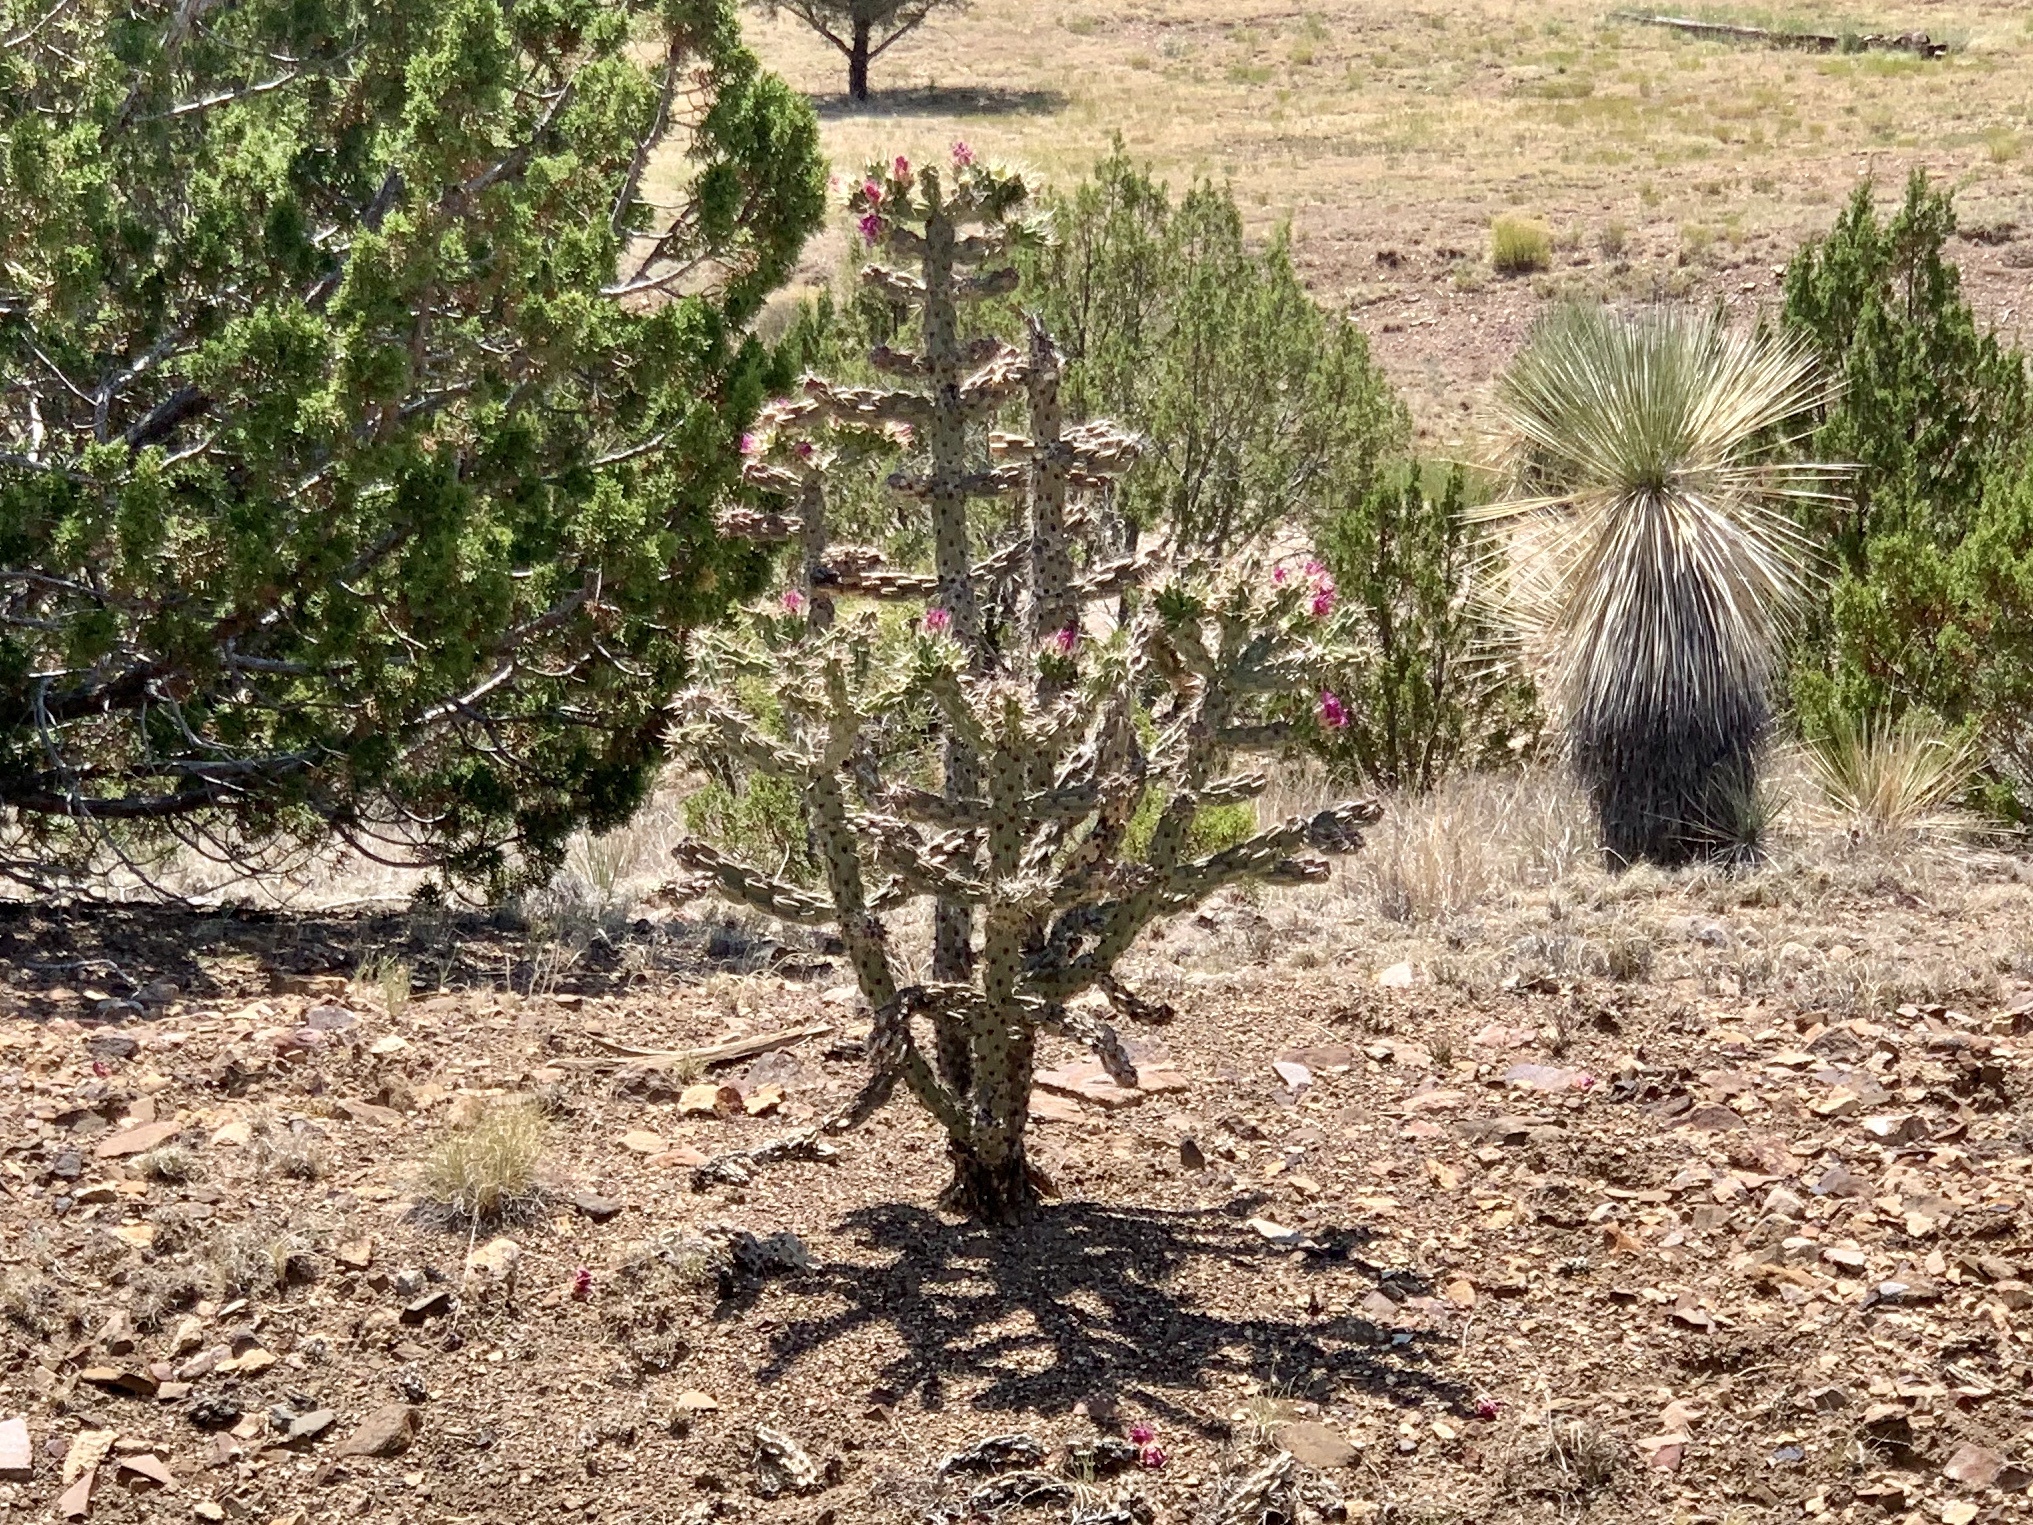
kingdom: Plantae
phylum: Tracheophyta
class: Magnoliopsida
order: Caryophyllales
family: Cactaceae
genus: Cylindropuntia
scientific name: Cylindropuntia imbricata
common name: Candelabrum cactus
